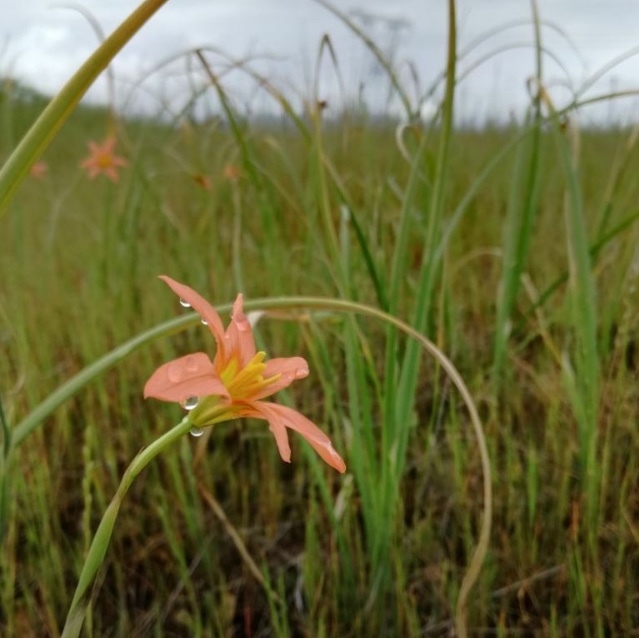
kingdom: Plantae
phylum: Tracheophyta
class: Liliopsida
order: Asparagales
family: Iridaceae
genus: Moraea
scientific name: Moraea flaccida
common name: One-leaf cape-tulip
